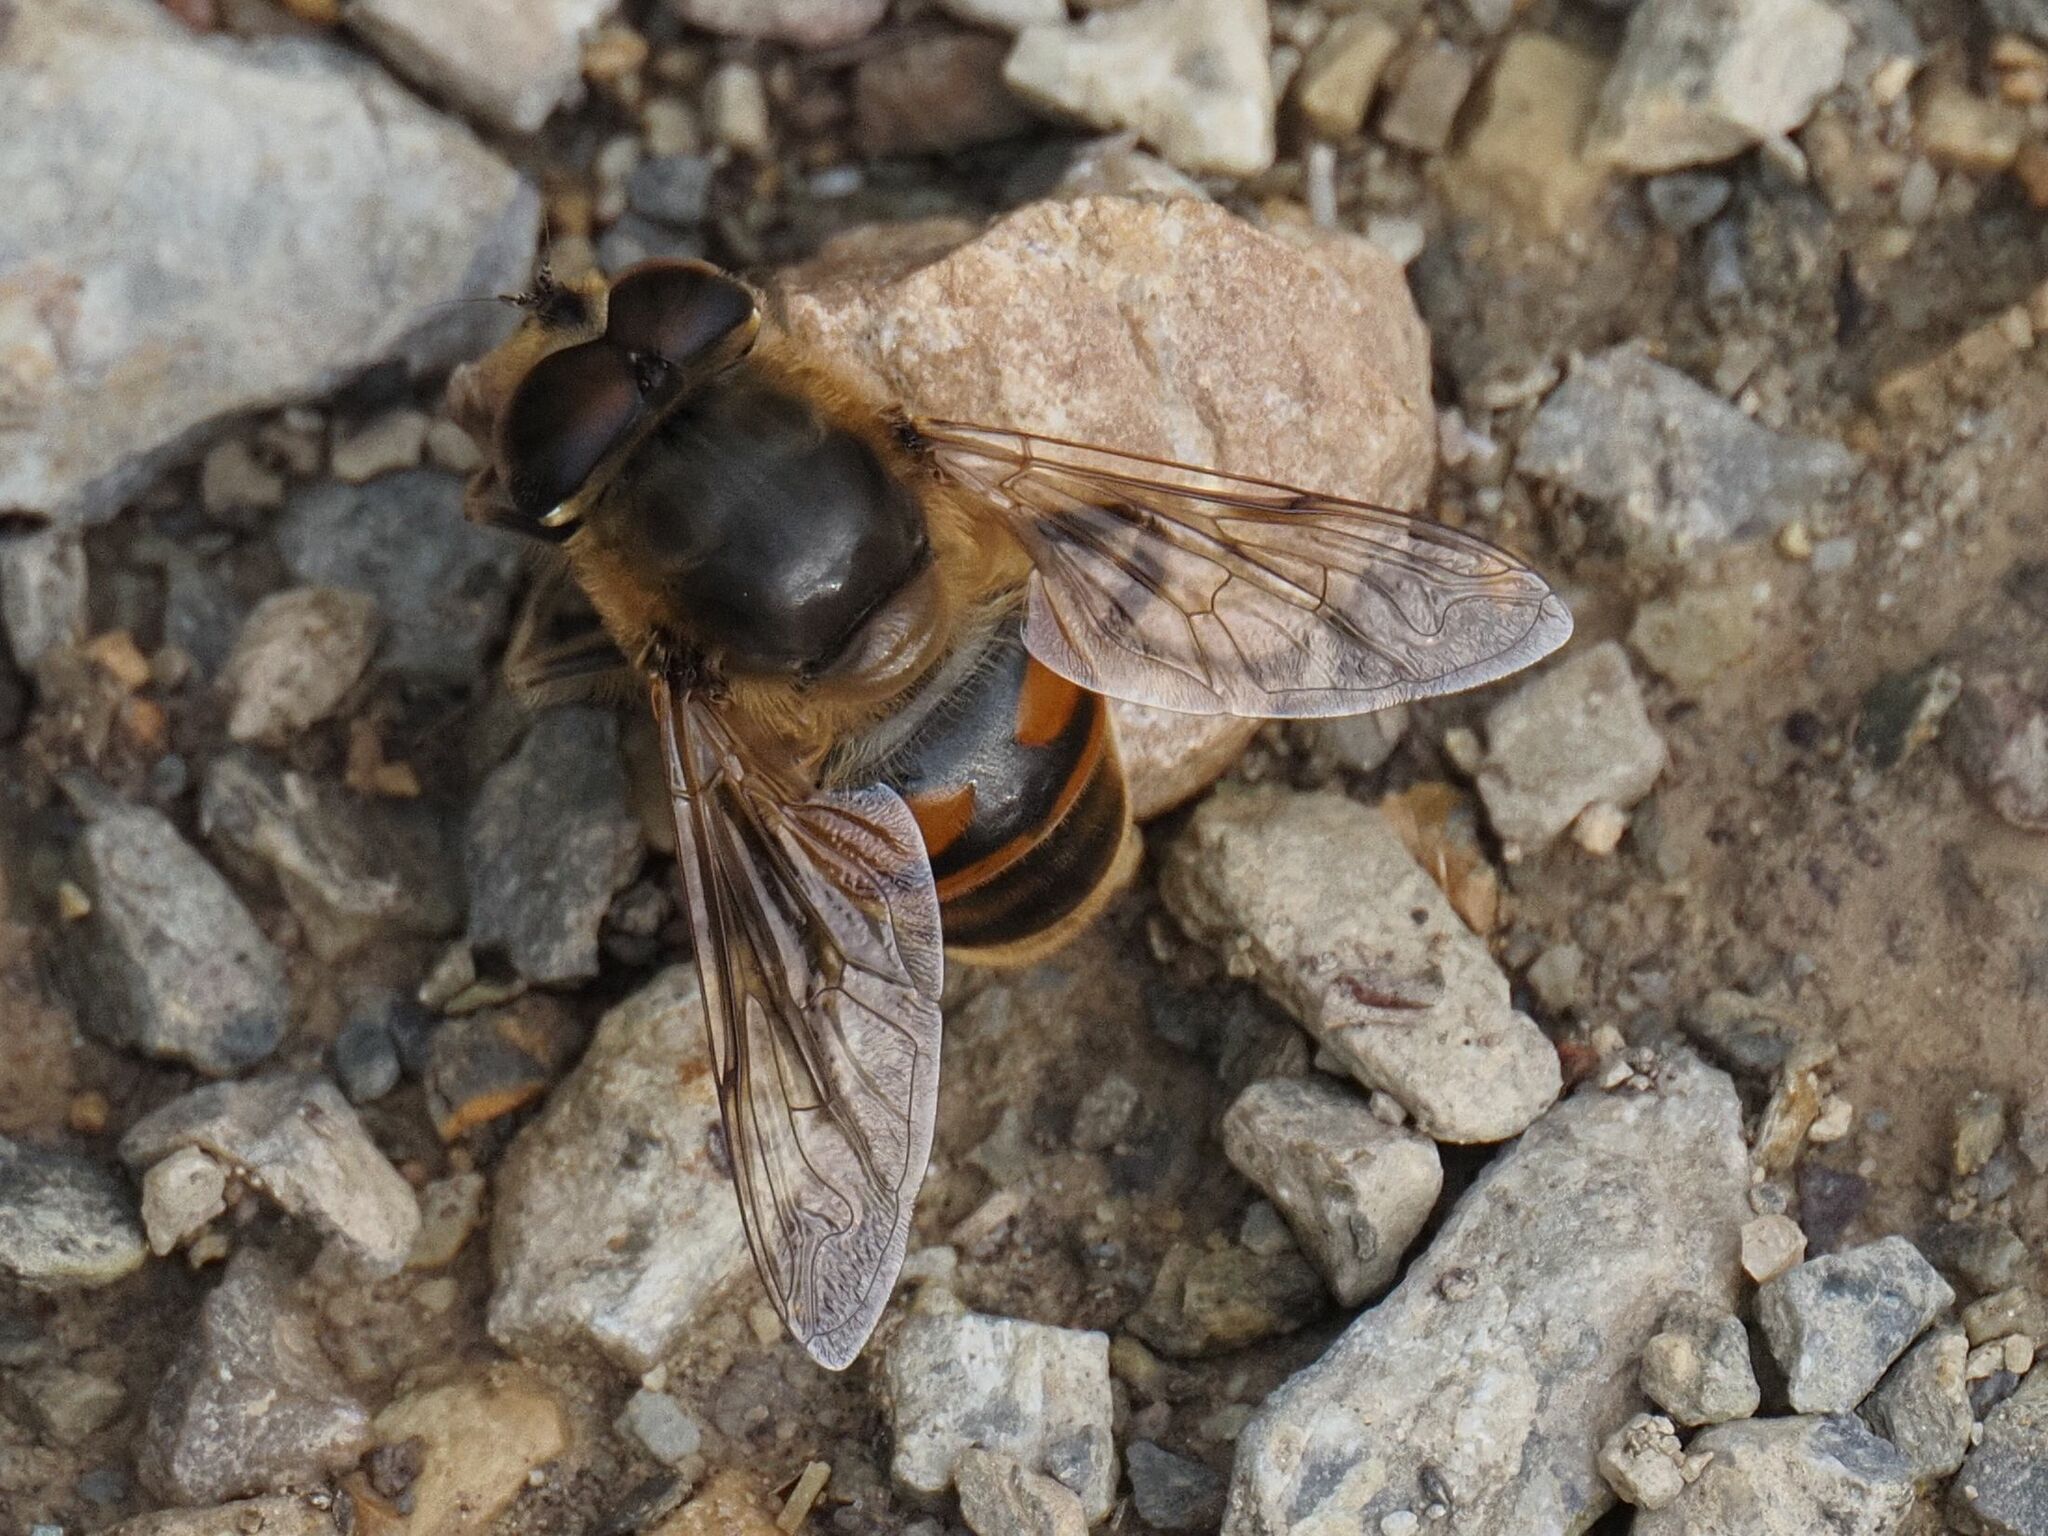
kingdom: Animalia
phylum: Arthropoda
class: Insecta
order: Diptera
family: Syrphidae
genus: Eristalis
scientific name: Eristalis tenax
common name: Drone fly
